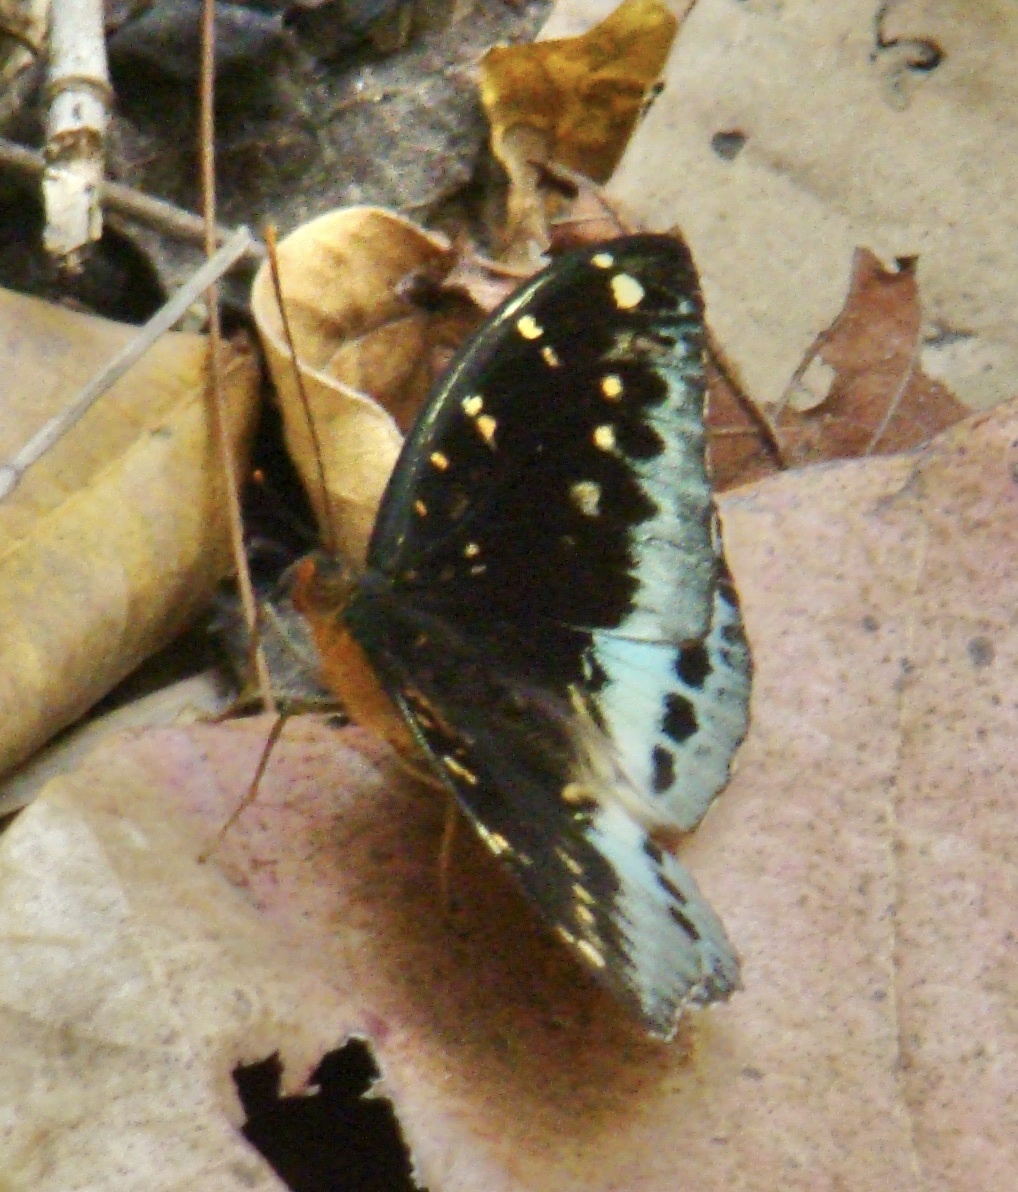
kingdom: Animalia
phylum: Arthropoda
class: Insecta
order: Lepidoptera
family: Nymphalidae
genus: Lexias
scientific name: Lexias pardalis
